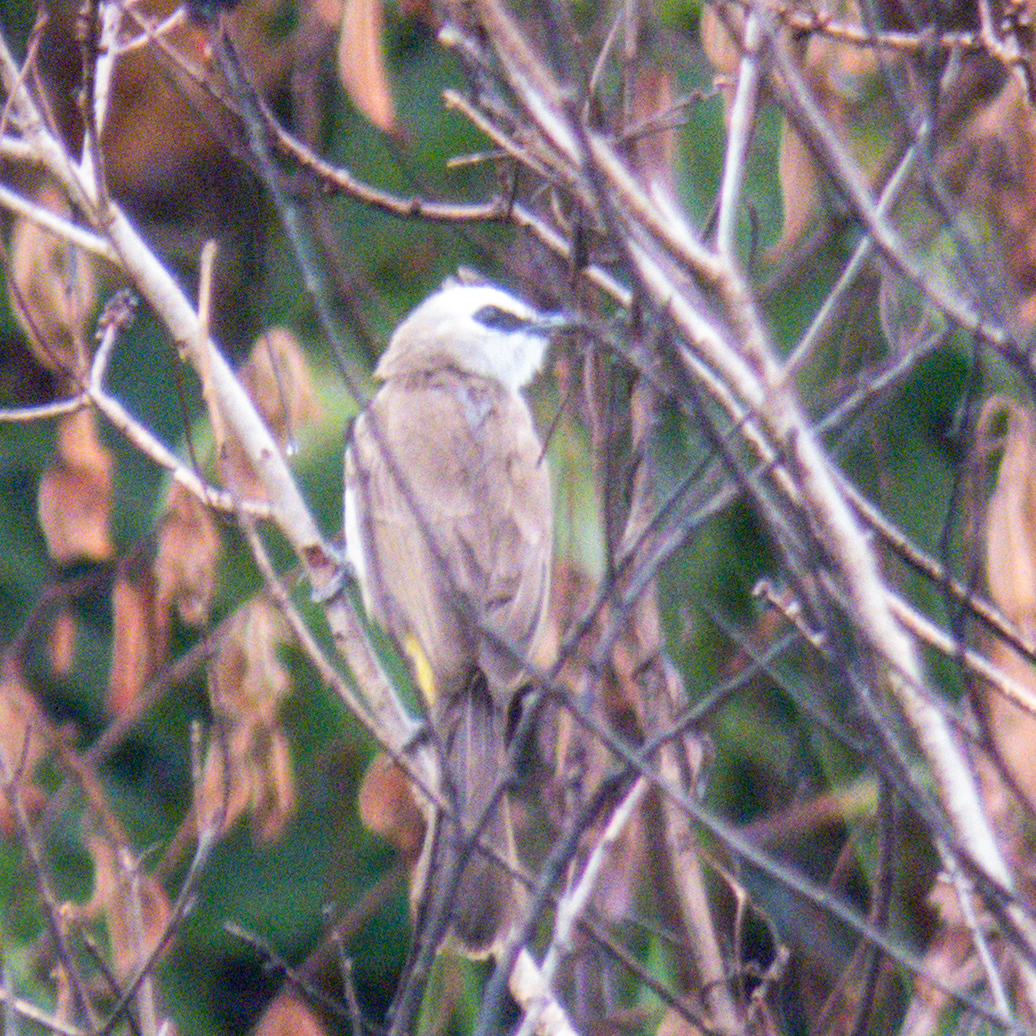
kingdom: Animalia
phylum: Chordata
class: Aves
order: Passeriformes
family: Pycnonotidae
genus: Pycnonotus
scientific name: Pycnonotus goiavier
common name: Yellow-vented bulbul
